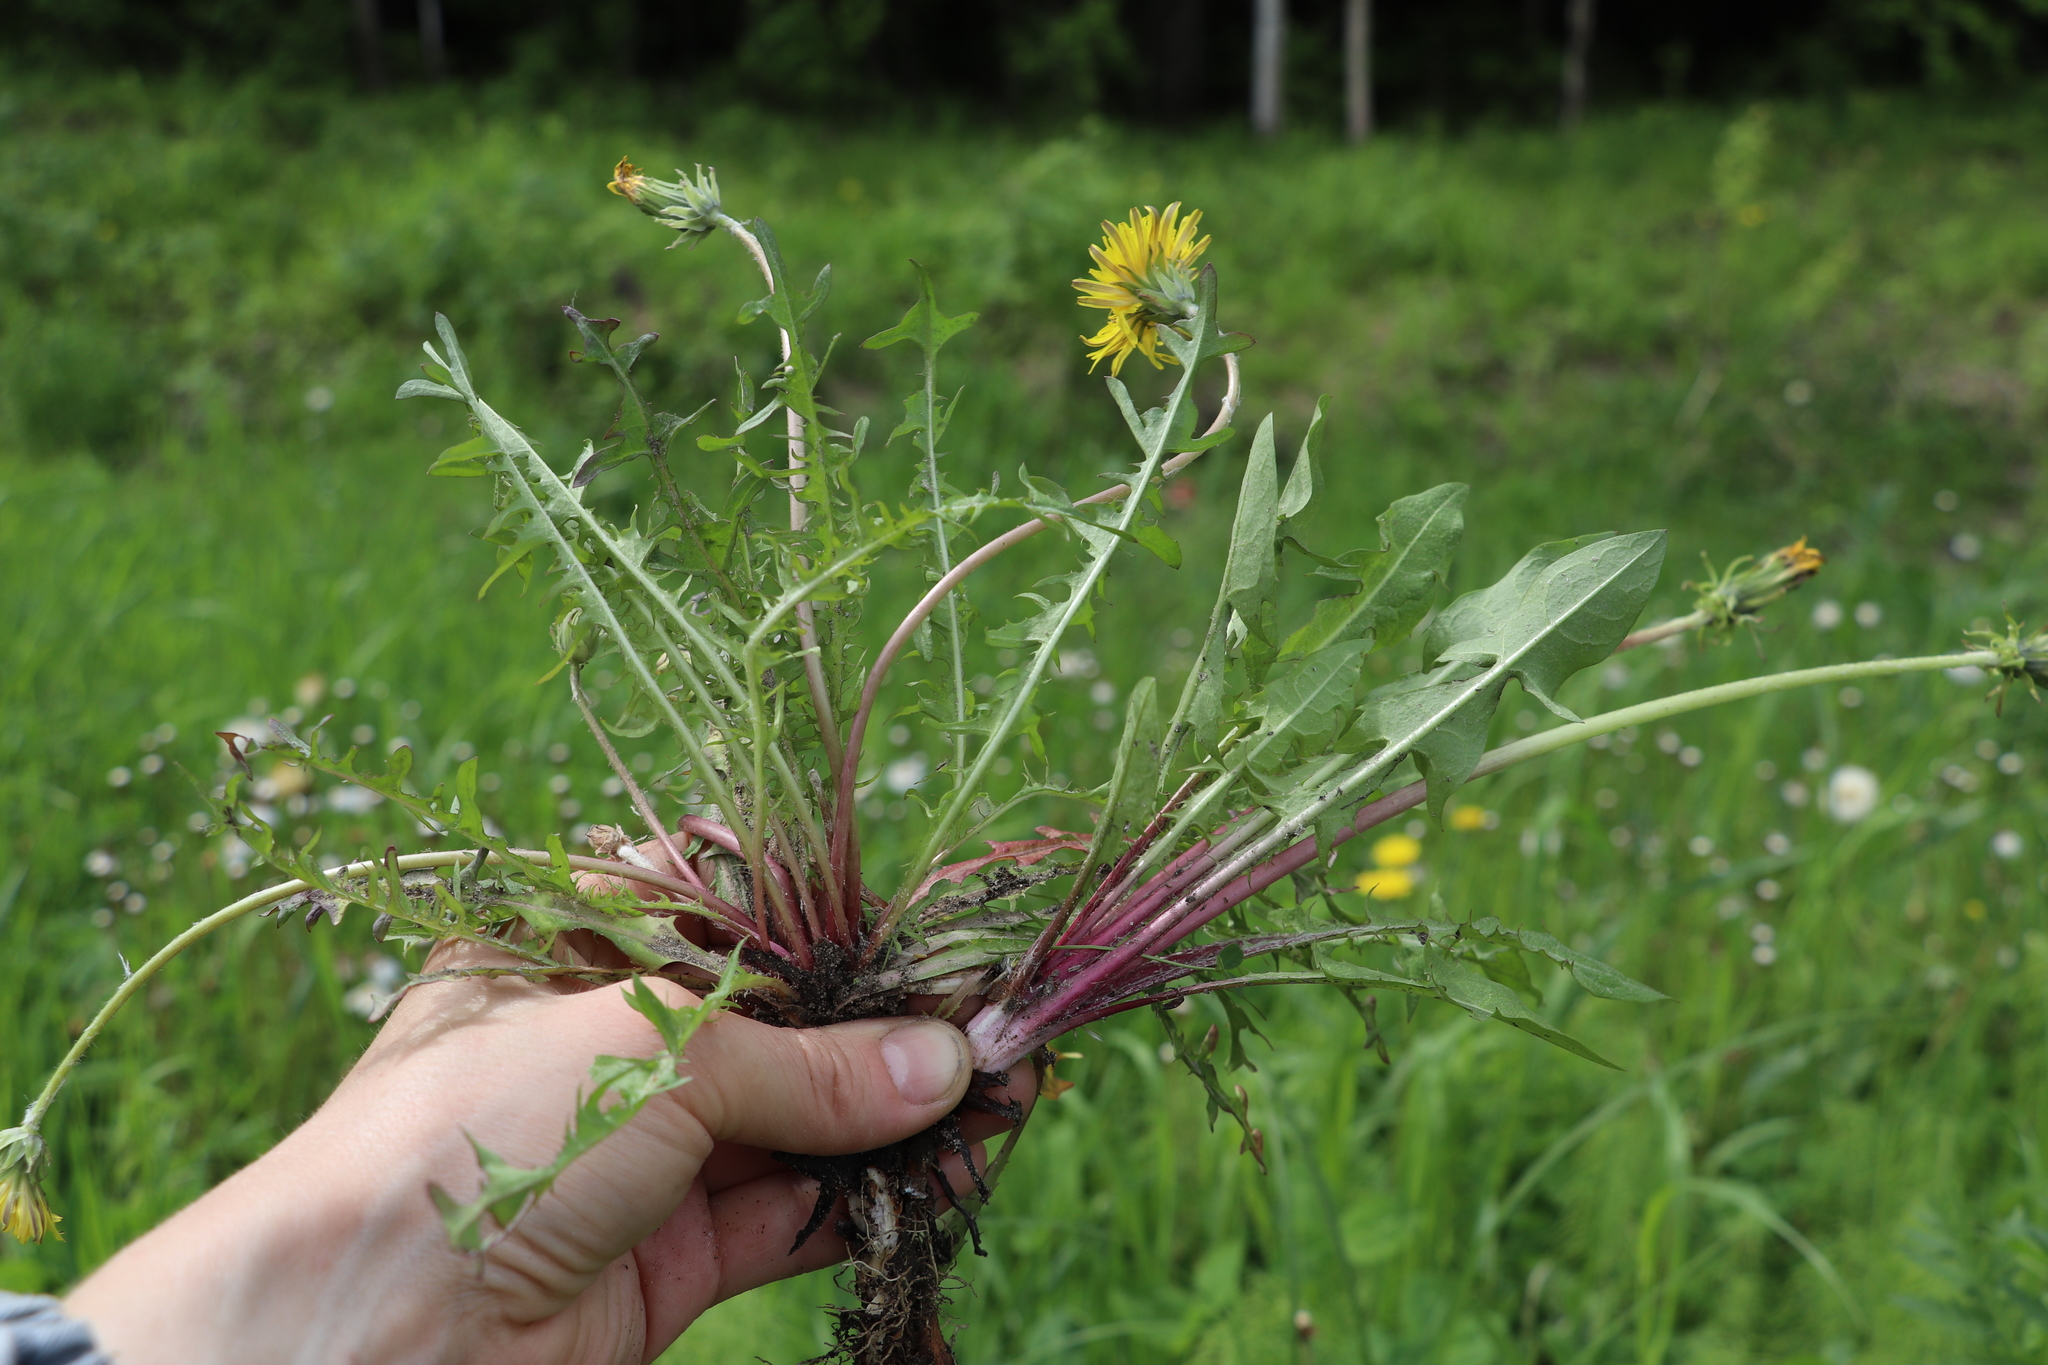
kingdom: Plantae
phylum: Tracheophyta
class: Magnoliopsida
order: Asterales
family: Asteraceae
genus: Taraxacum
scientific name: Taraxacum officinale
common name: Common dandelion
